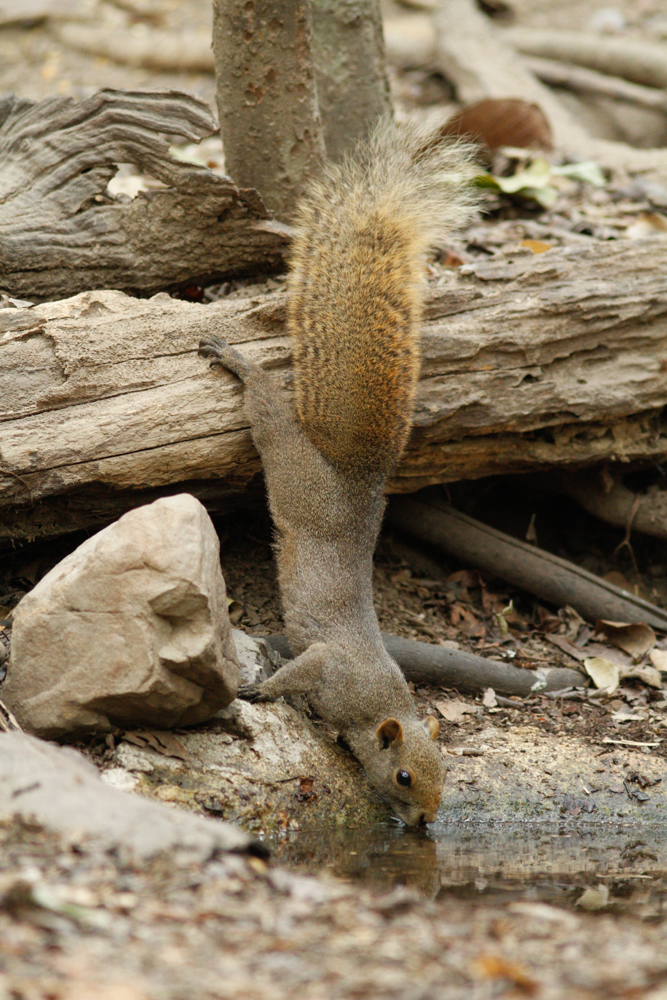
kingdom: Animalia
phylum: Chordata
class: Mammalia
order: Rodentia
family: Sciuridae
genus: Callosciurus
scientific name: Callosciurus erythraeus
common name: Pallas's squirrel
